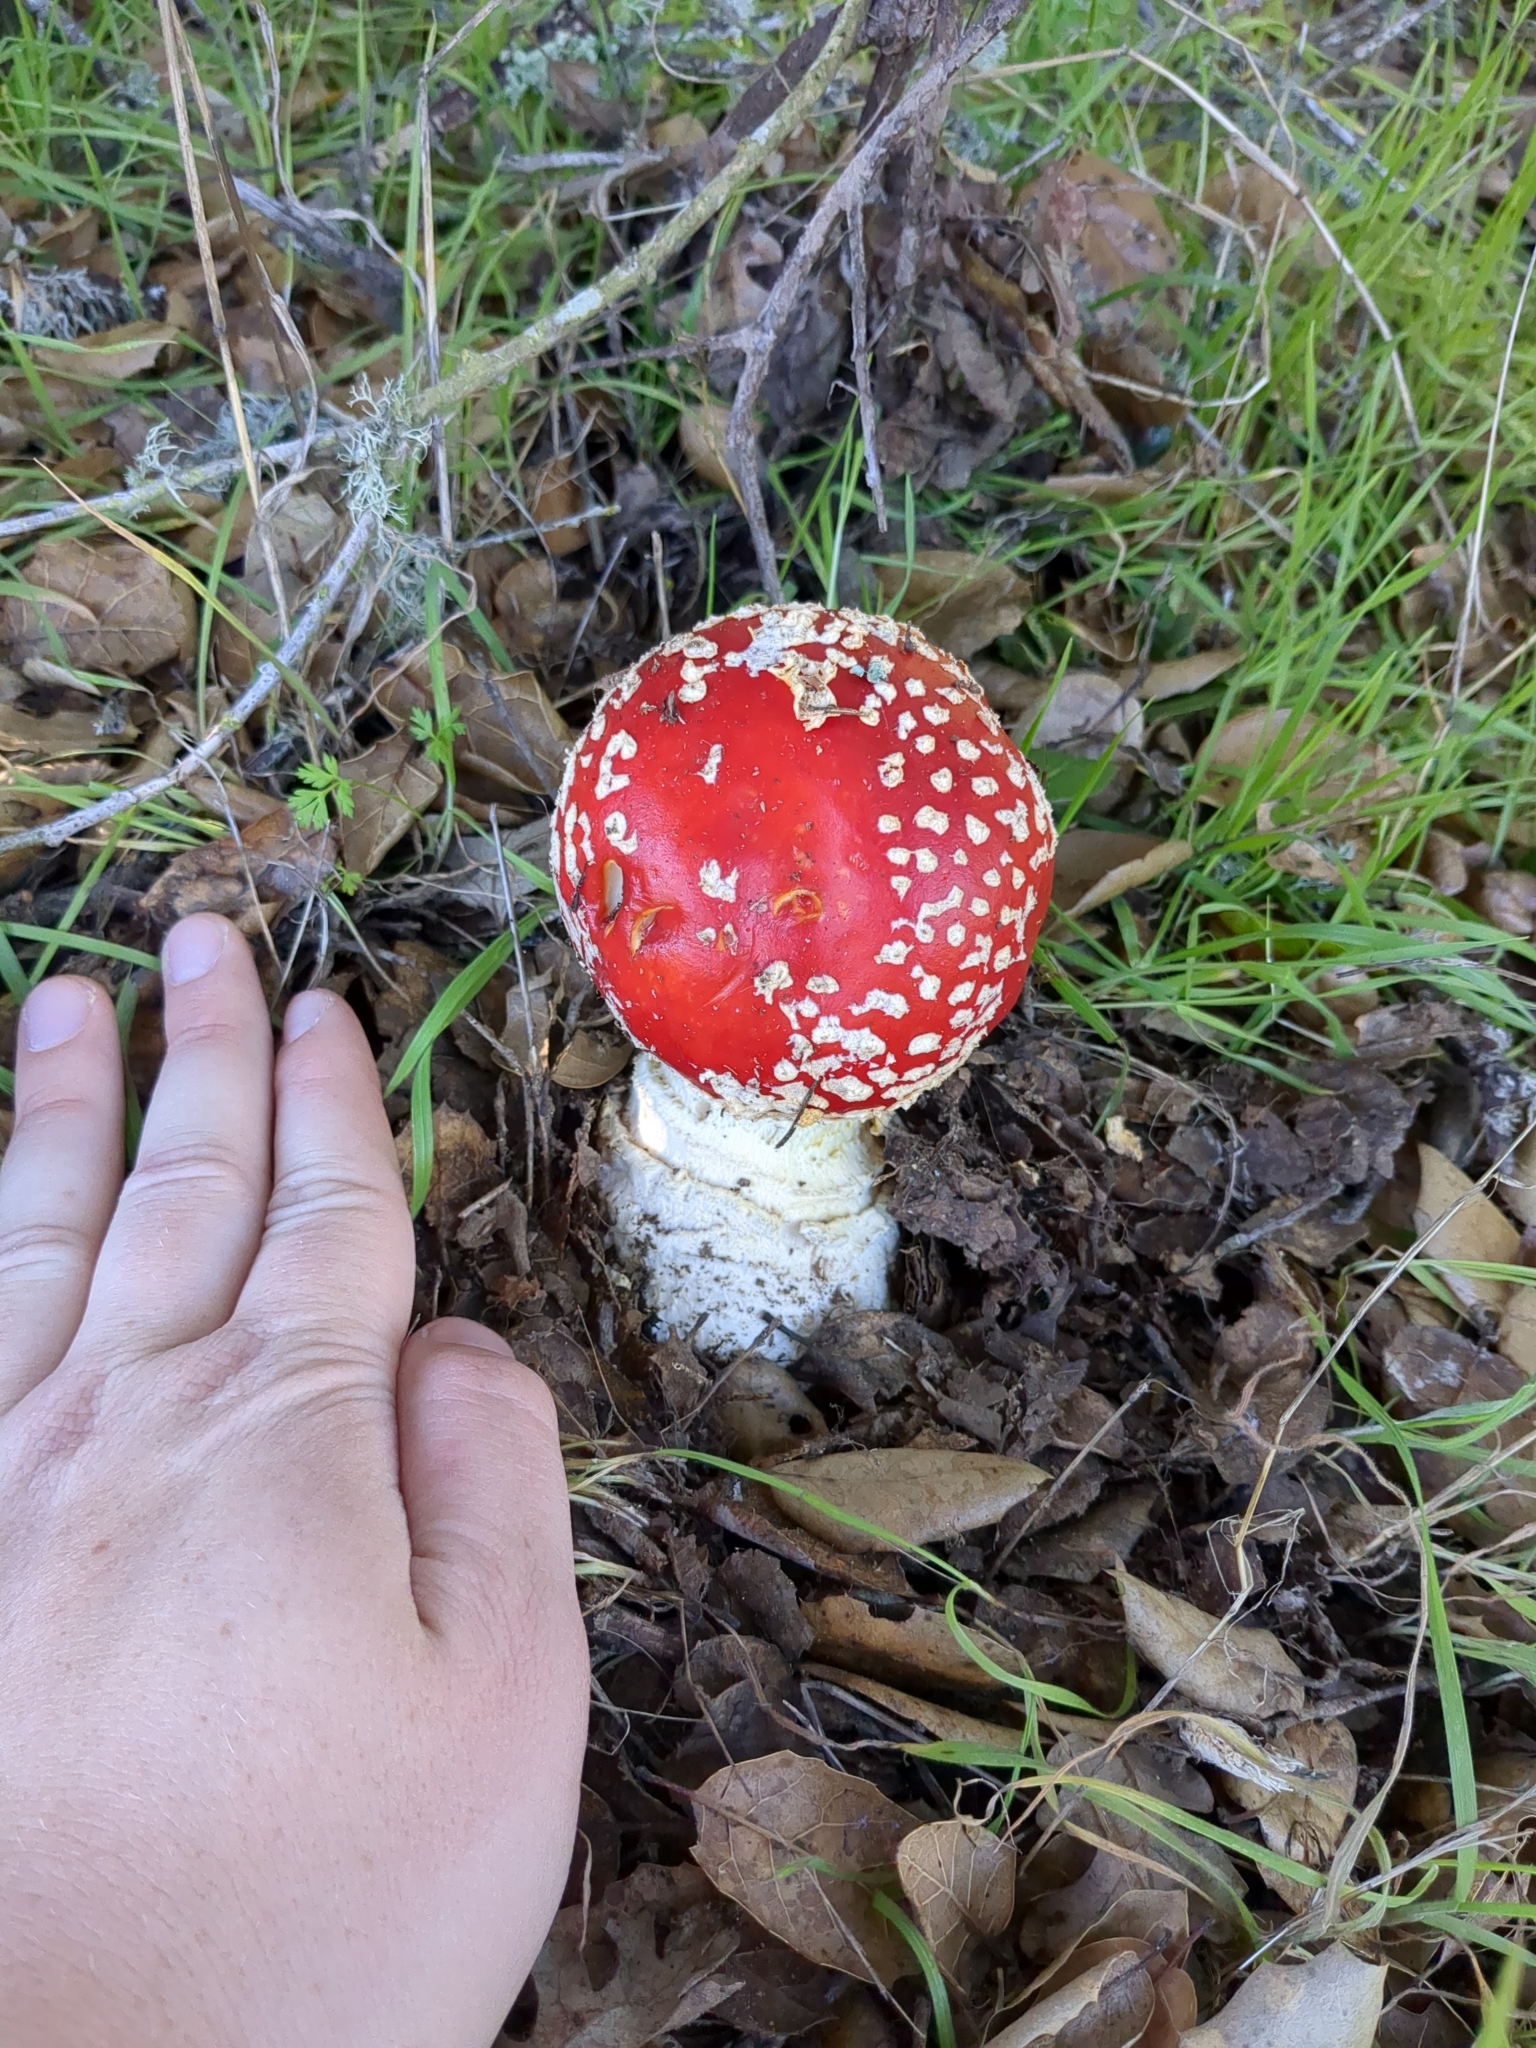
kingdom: Fungi
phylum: Basidiomycota
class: Agaricomycetes
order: Agaricales
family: Amanitaceae
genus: Amanita
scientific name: Amanita muscaria
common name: Fly agaric
